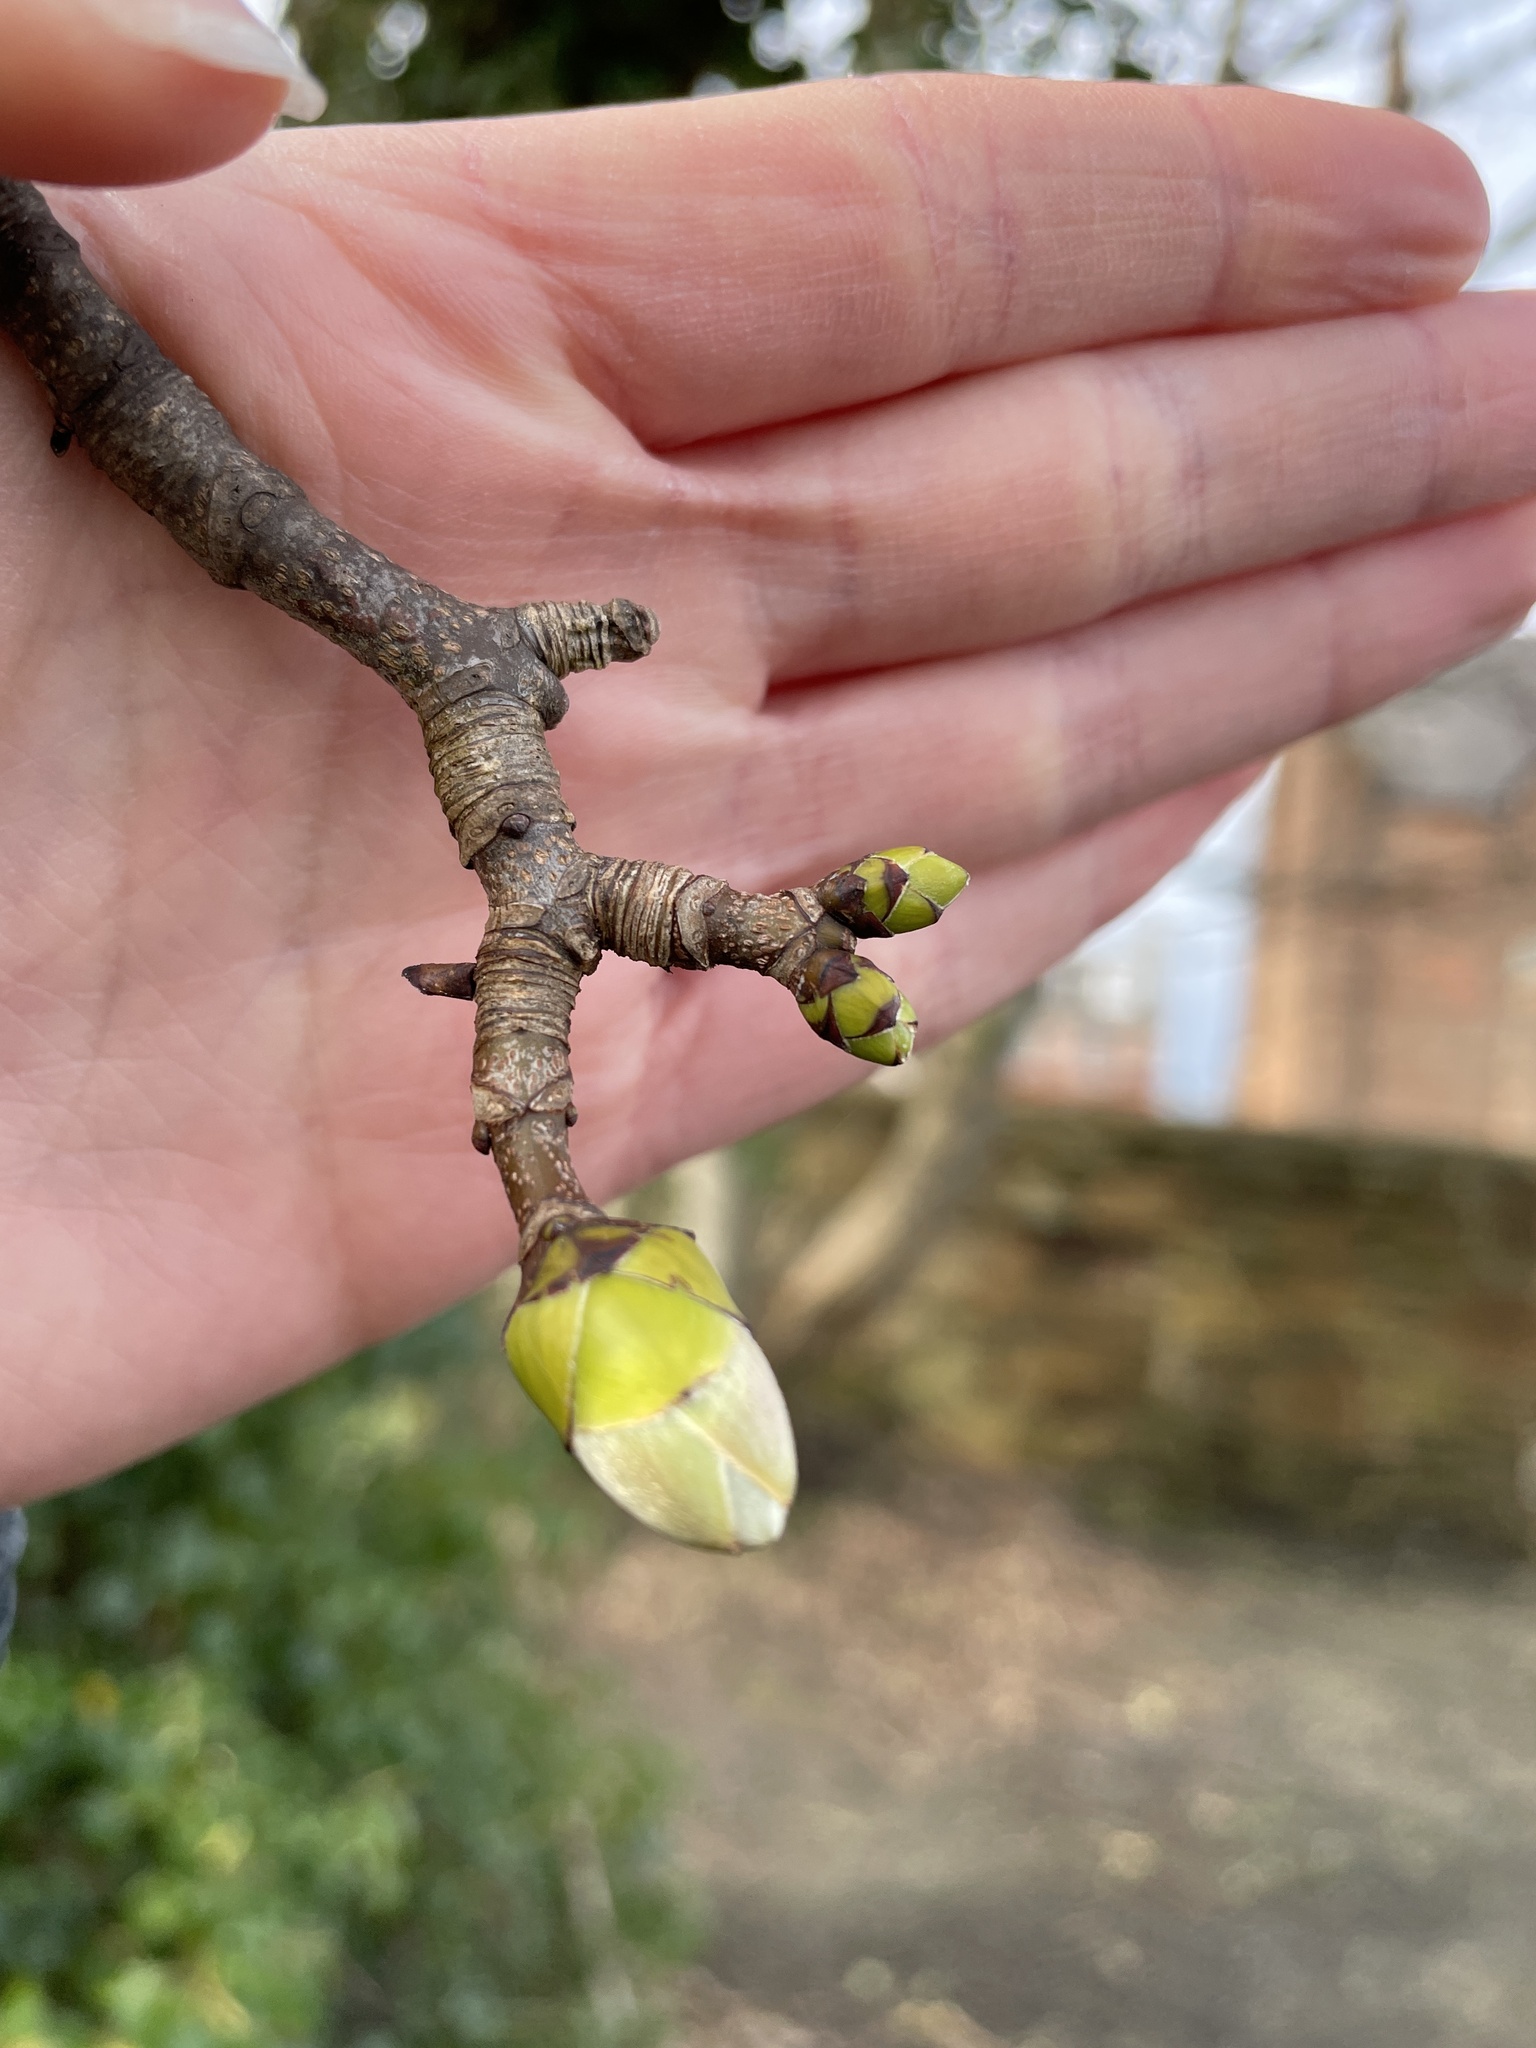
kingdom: Plantae
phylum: Tracheophyta
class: Magnoliopsida
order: Sapindales
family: Sapindaceae
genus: Acer
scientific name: Acer pseudoplatanus
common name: Sycamore
